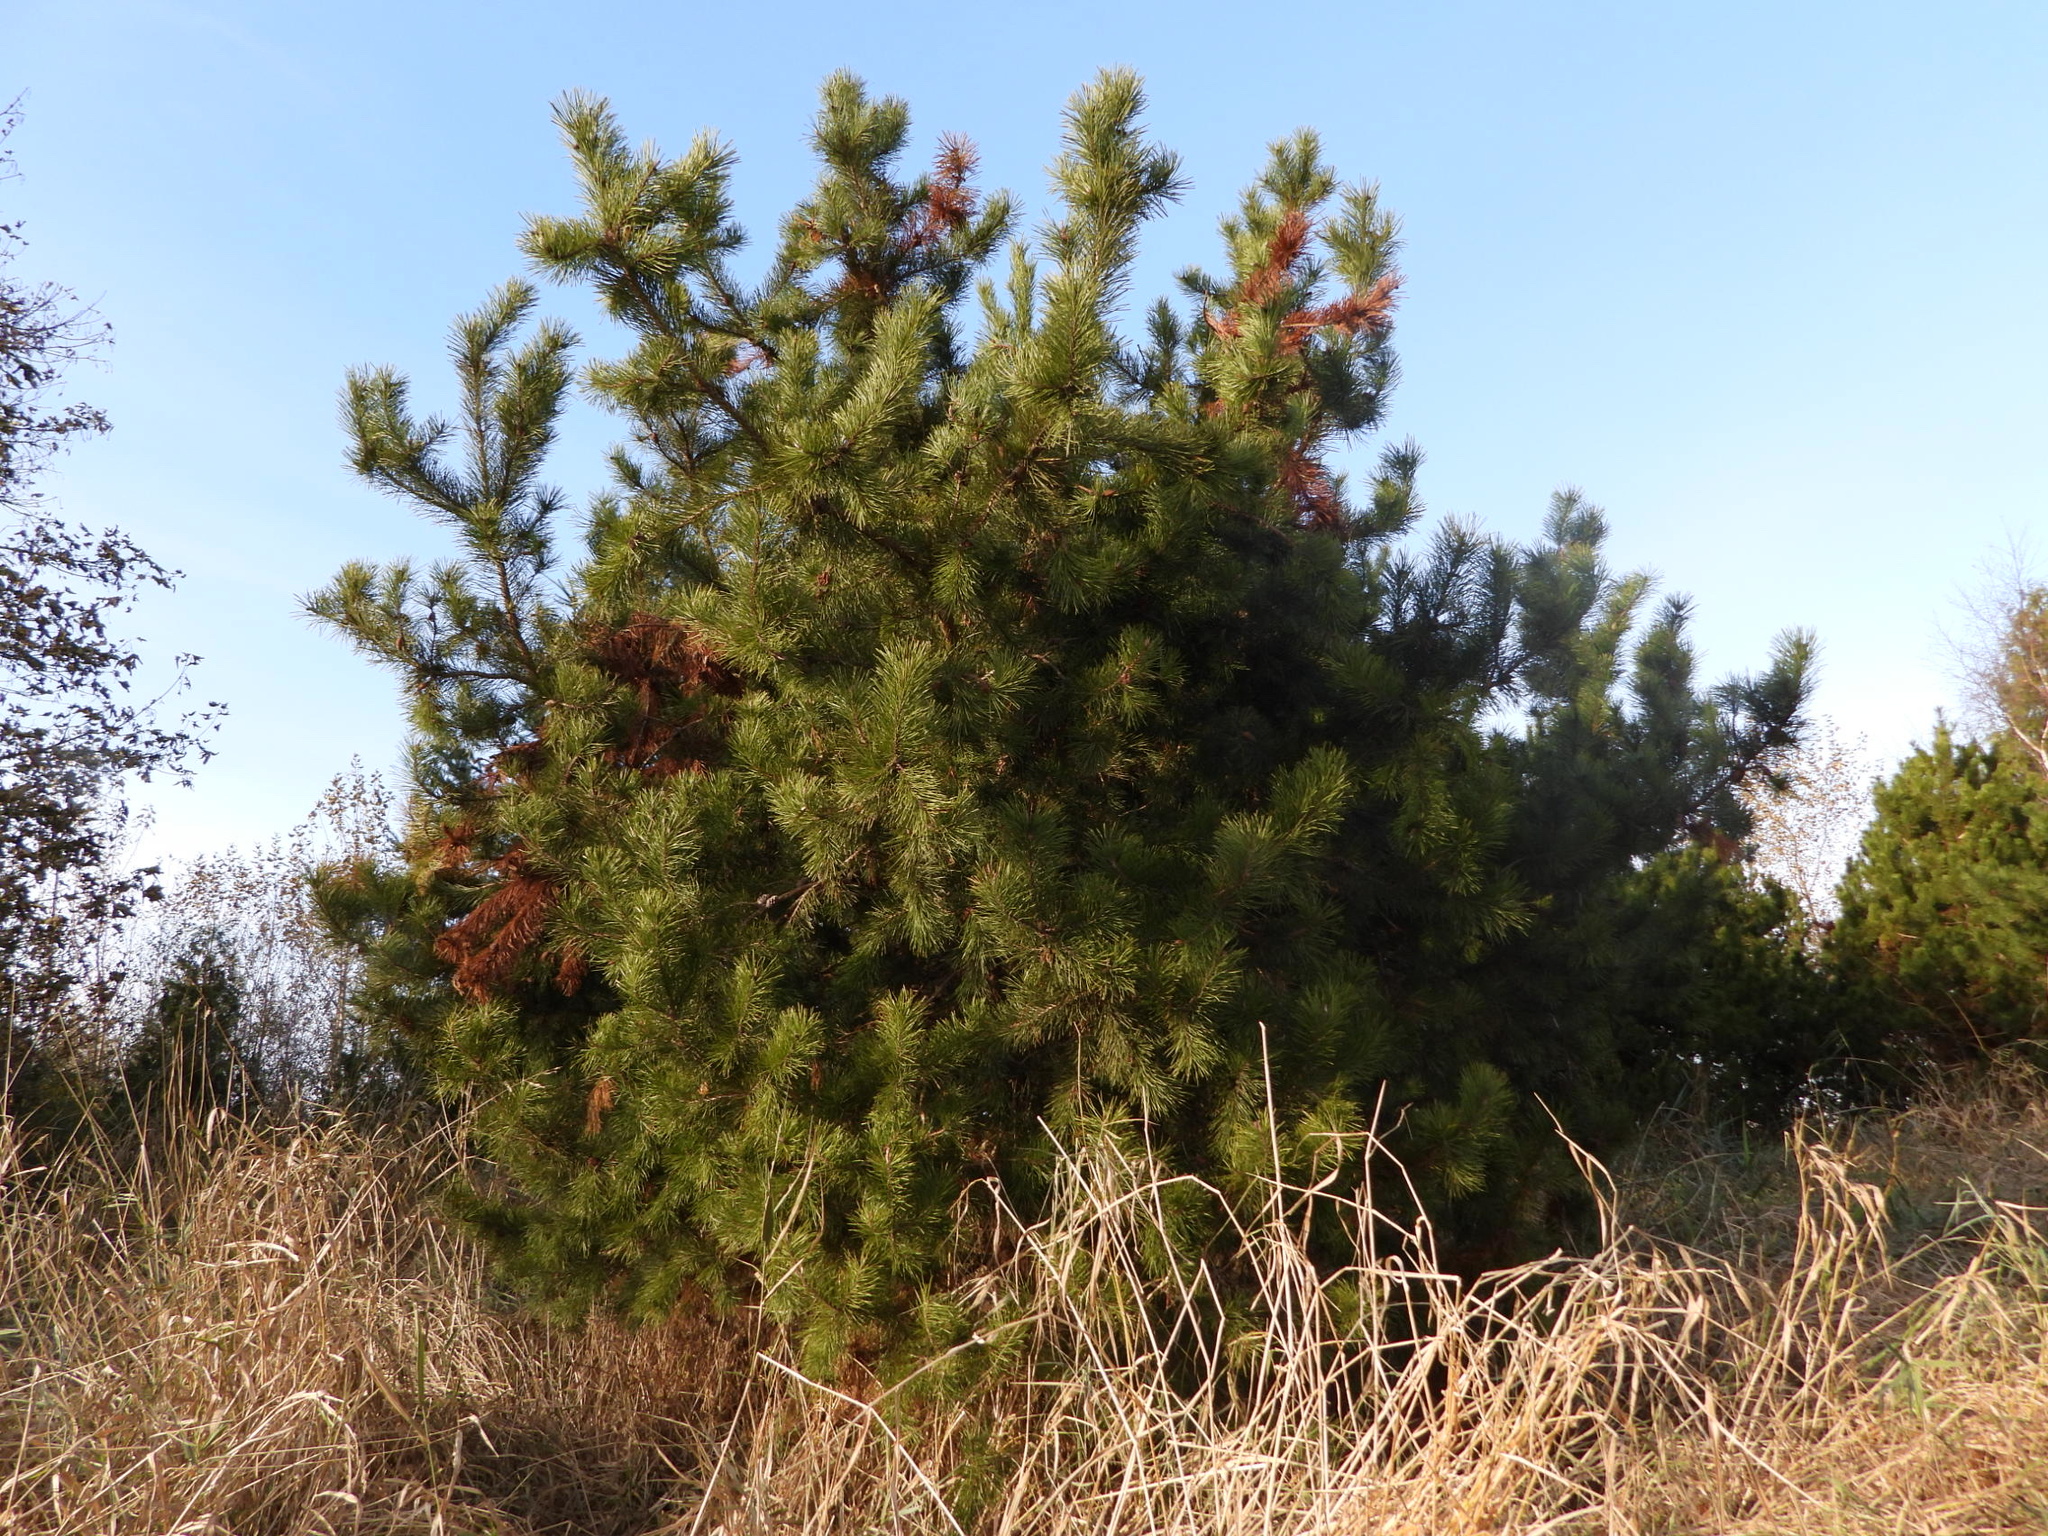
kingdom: Plantae
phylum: Tracheophyta
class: Pinopsida
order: Pinales
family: Pinaceae
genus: Pinus
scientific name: Pinus contorta
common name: Lodgepole pine
